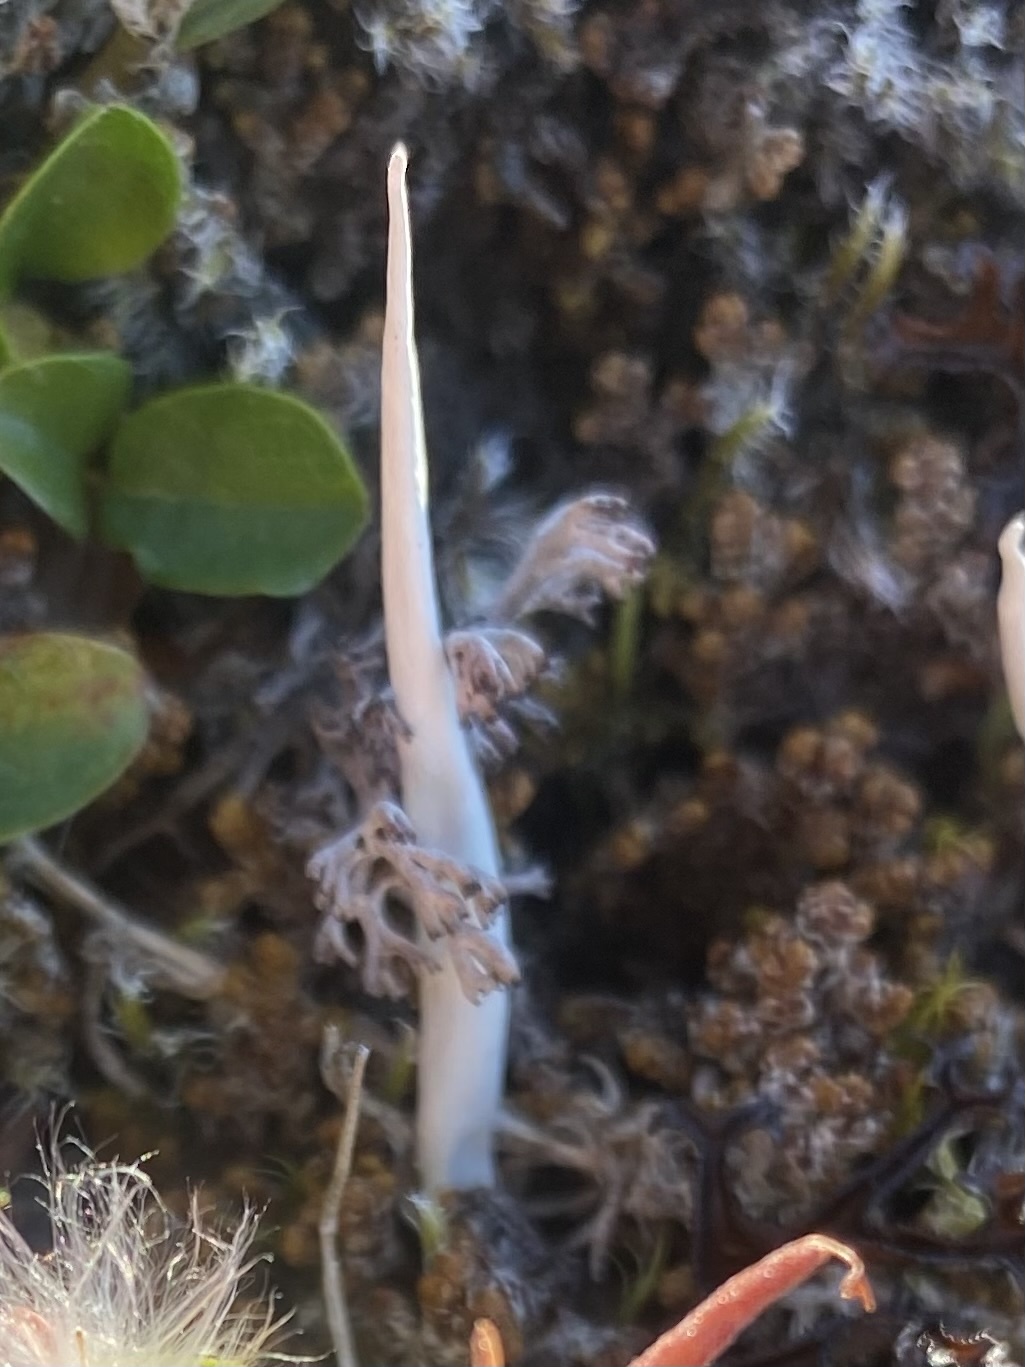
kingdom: Fungi
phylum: Ascomycota
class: Lecanoromycetes
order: Pertusariales
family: Icmadophilaceae
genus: Thamnolia
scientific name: Thamnolia vermicularis
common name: Whiteworm lichen
